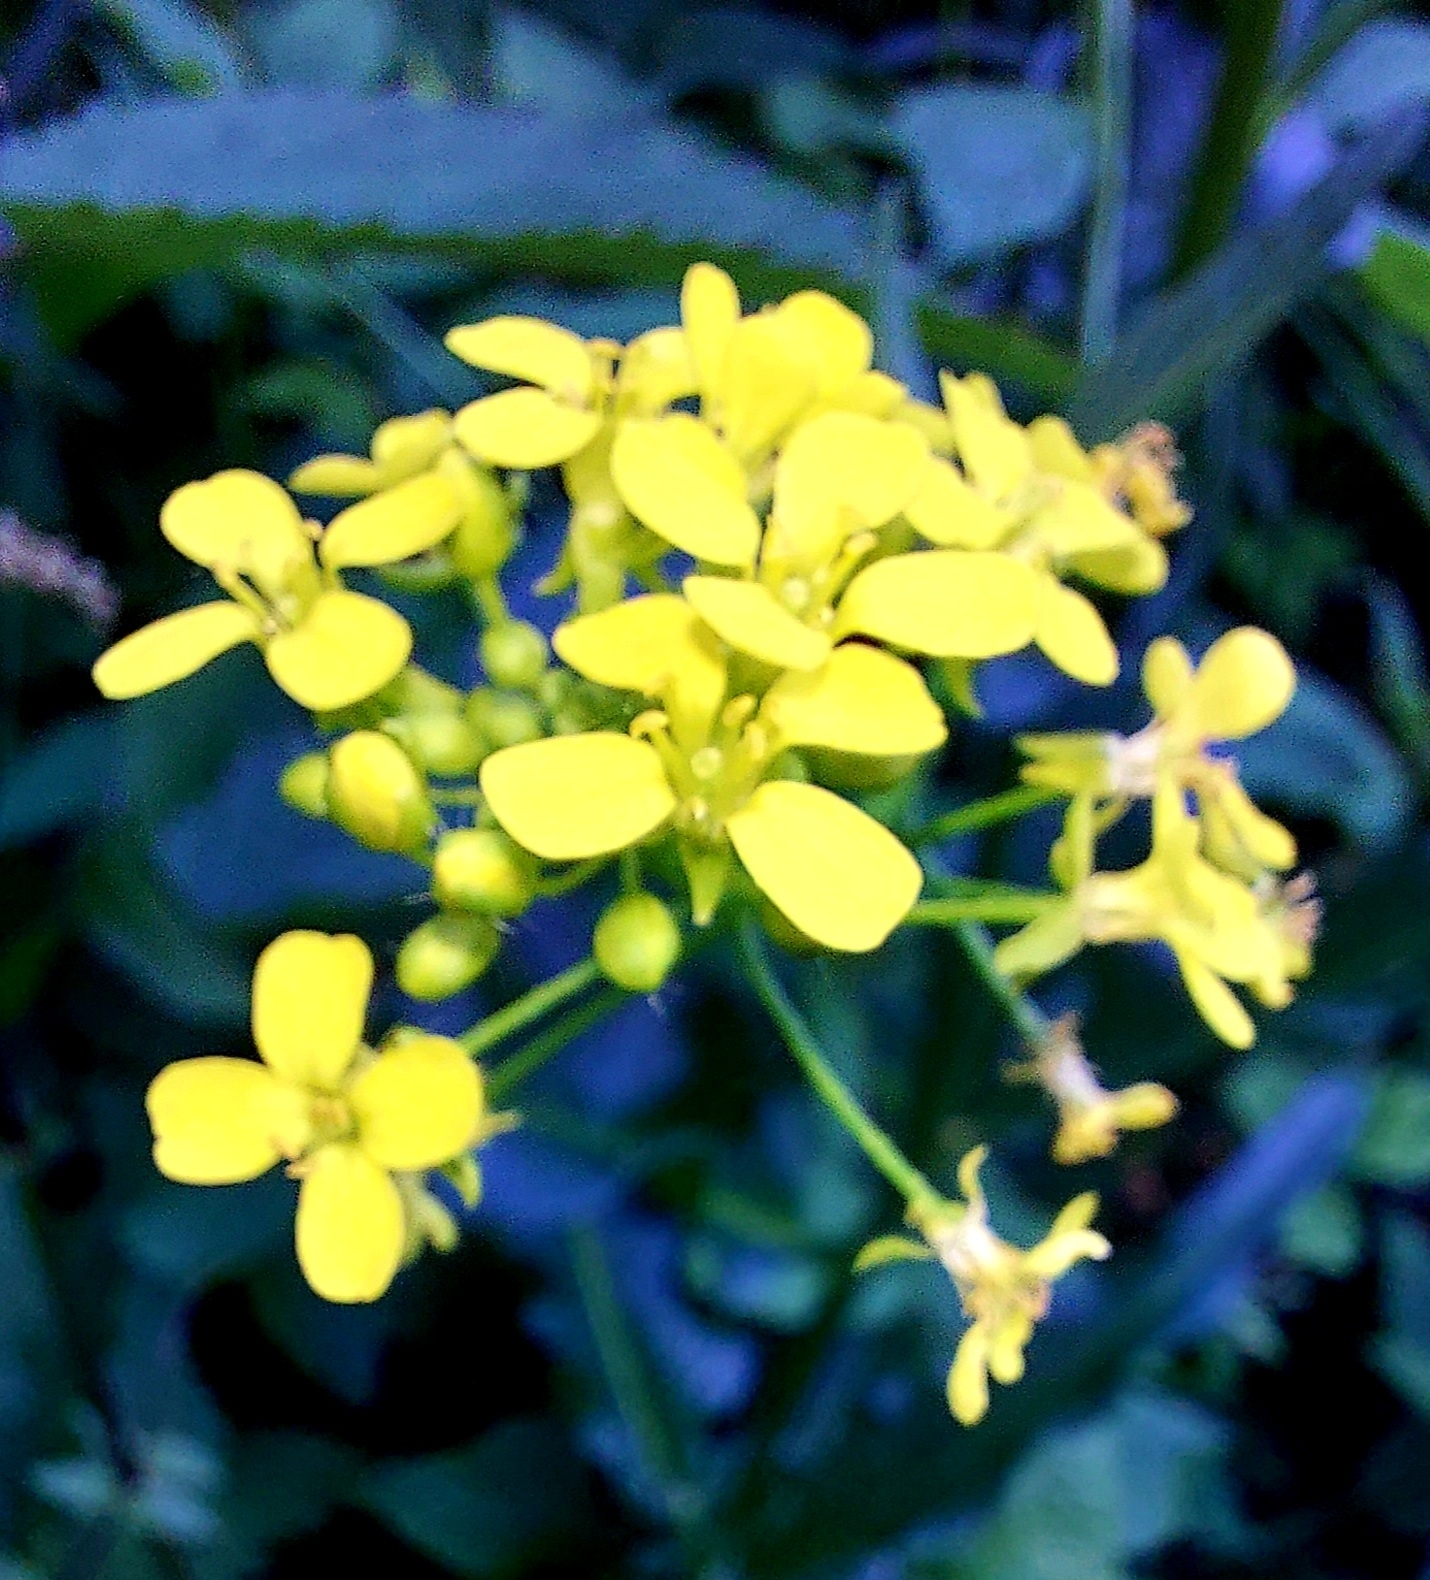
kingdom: Plantae
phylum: Tracheophyta
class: Magnoliopsida
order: Brassicales
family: Brassicaceae
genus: Bunias
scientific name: Bunias orientalis
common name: Warty-cabbage
